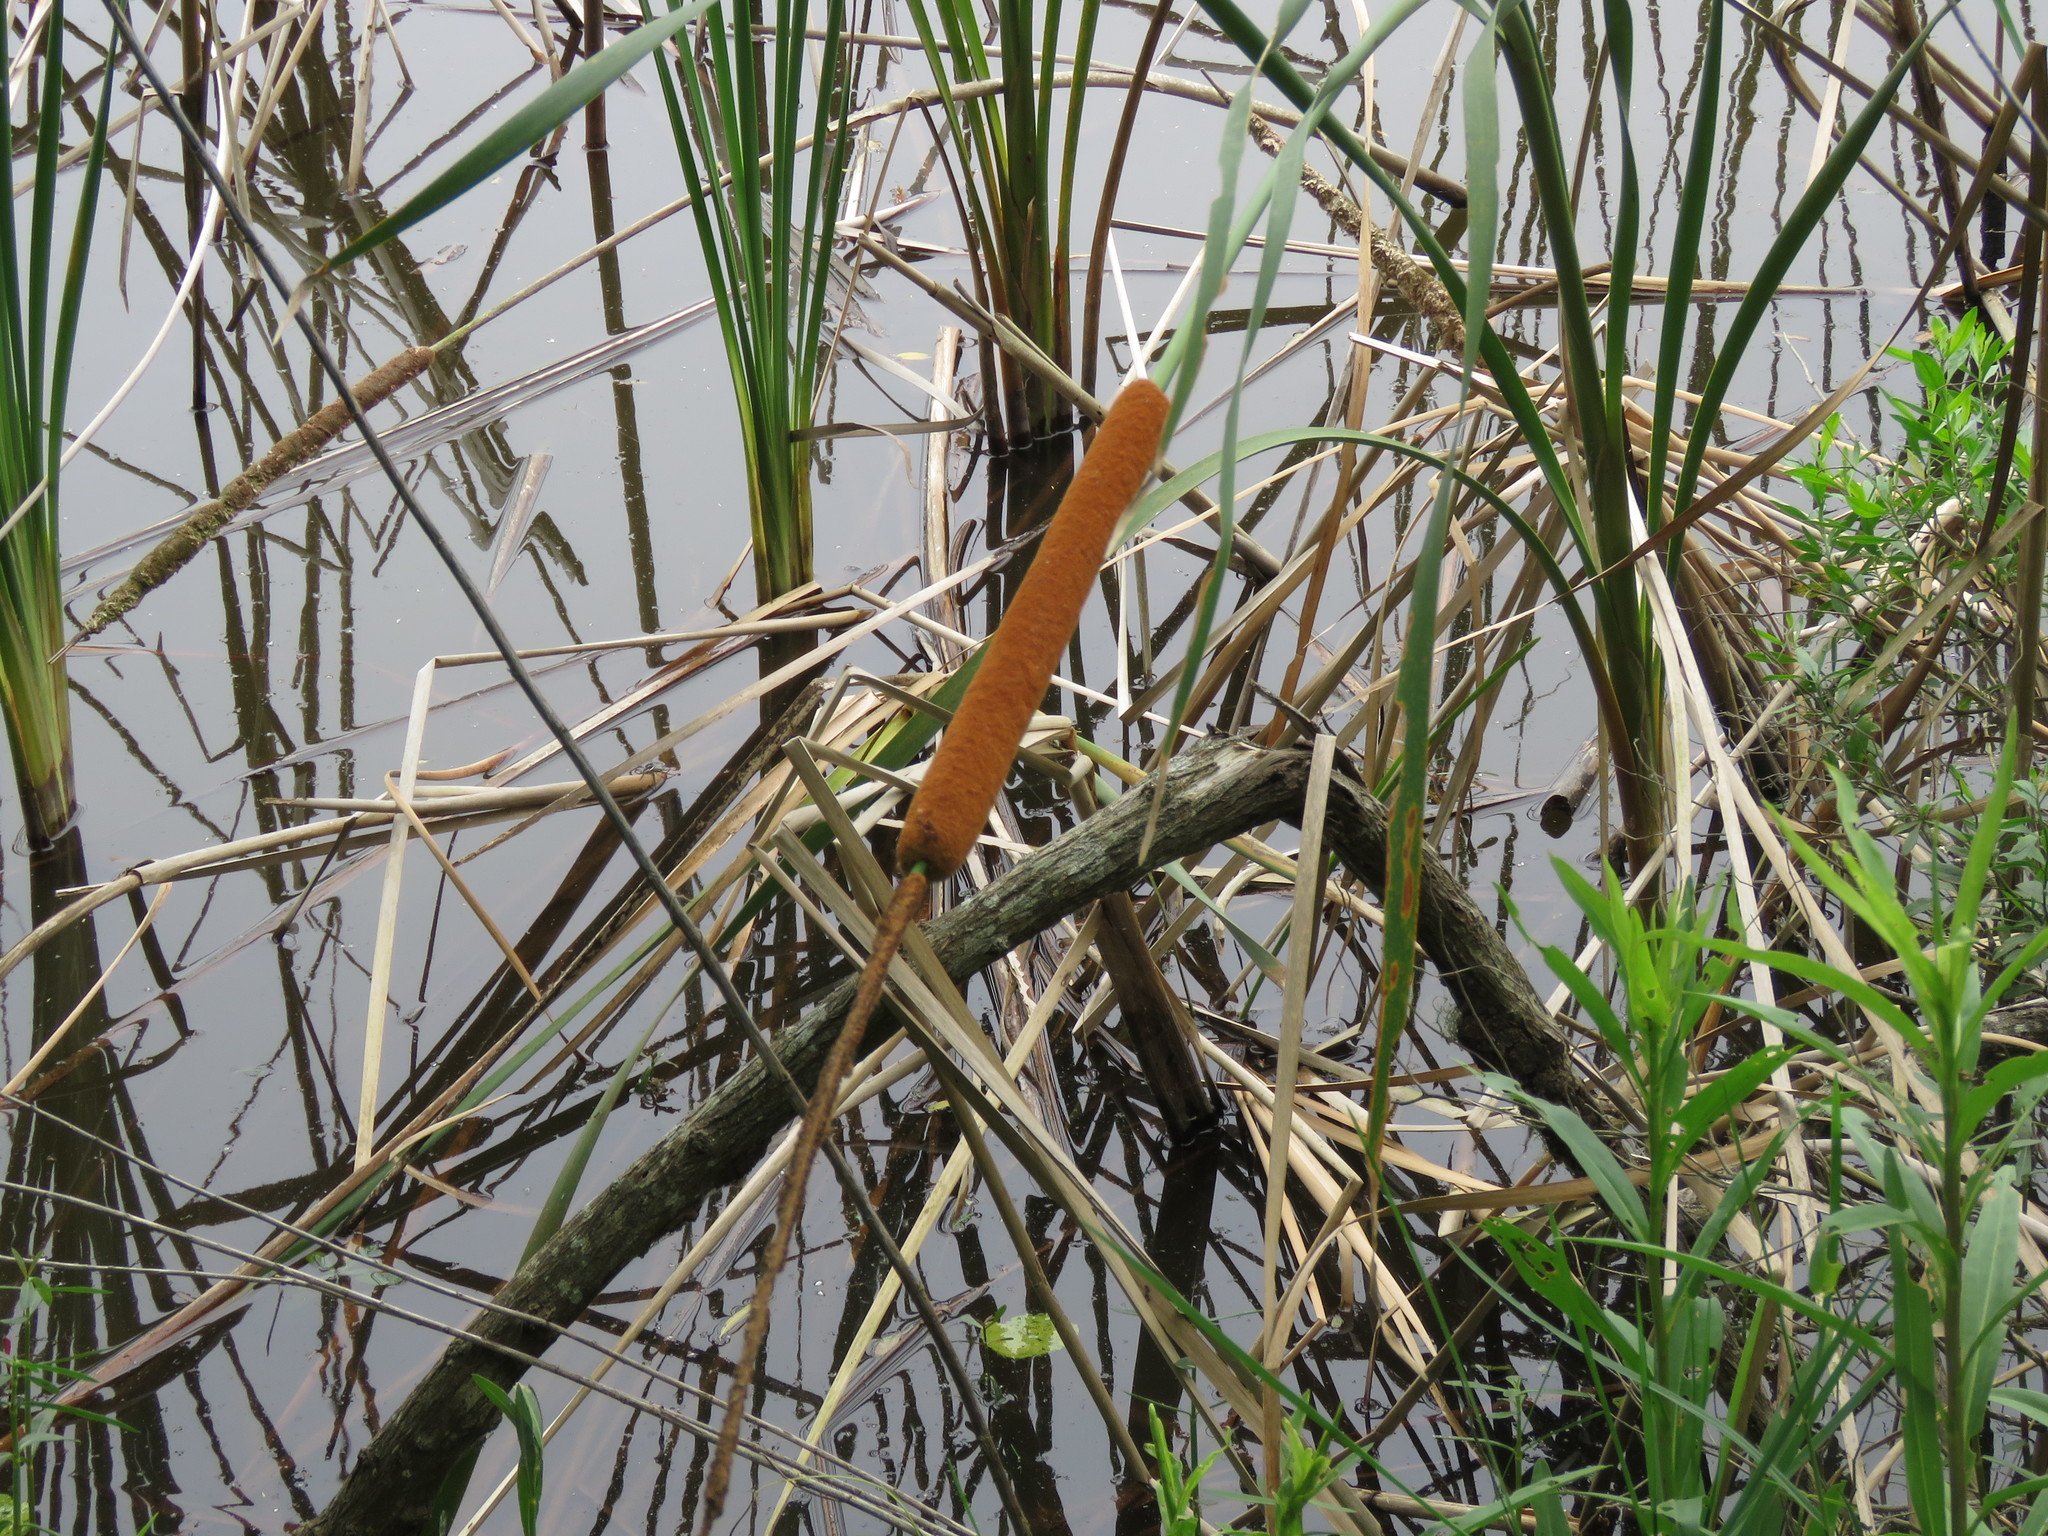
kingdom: Plantae
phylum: Tracheophyta
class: Liliopsida
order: Poales
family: Typhaceae
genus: Typha
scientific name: Typha domingensis
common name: Southern cattail
